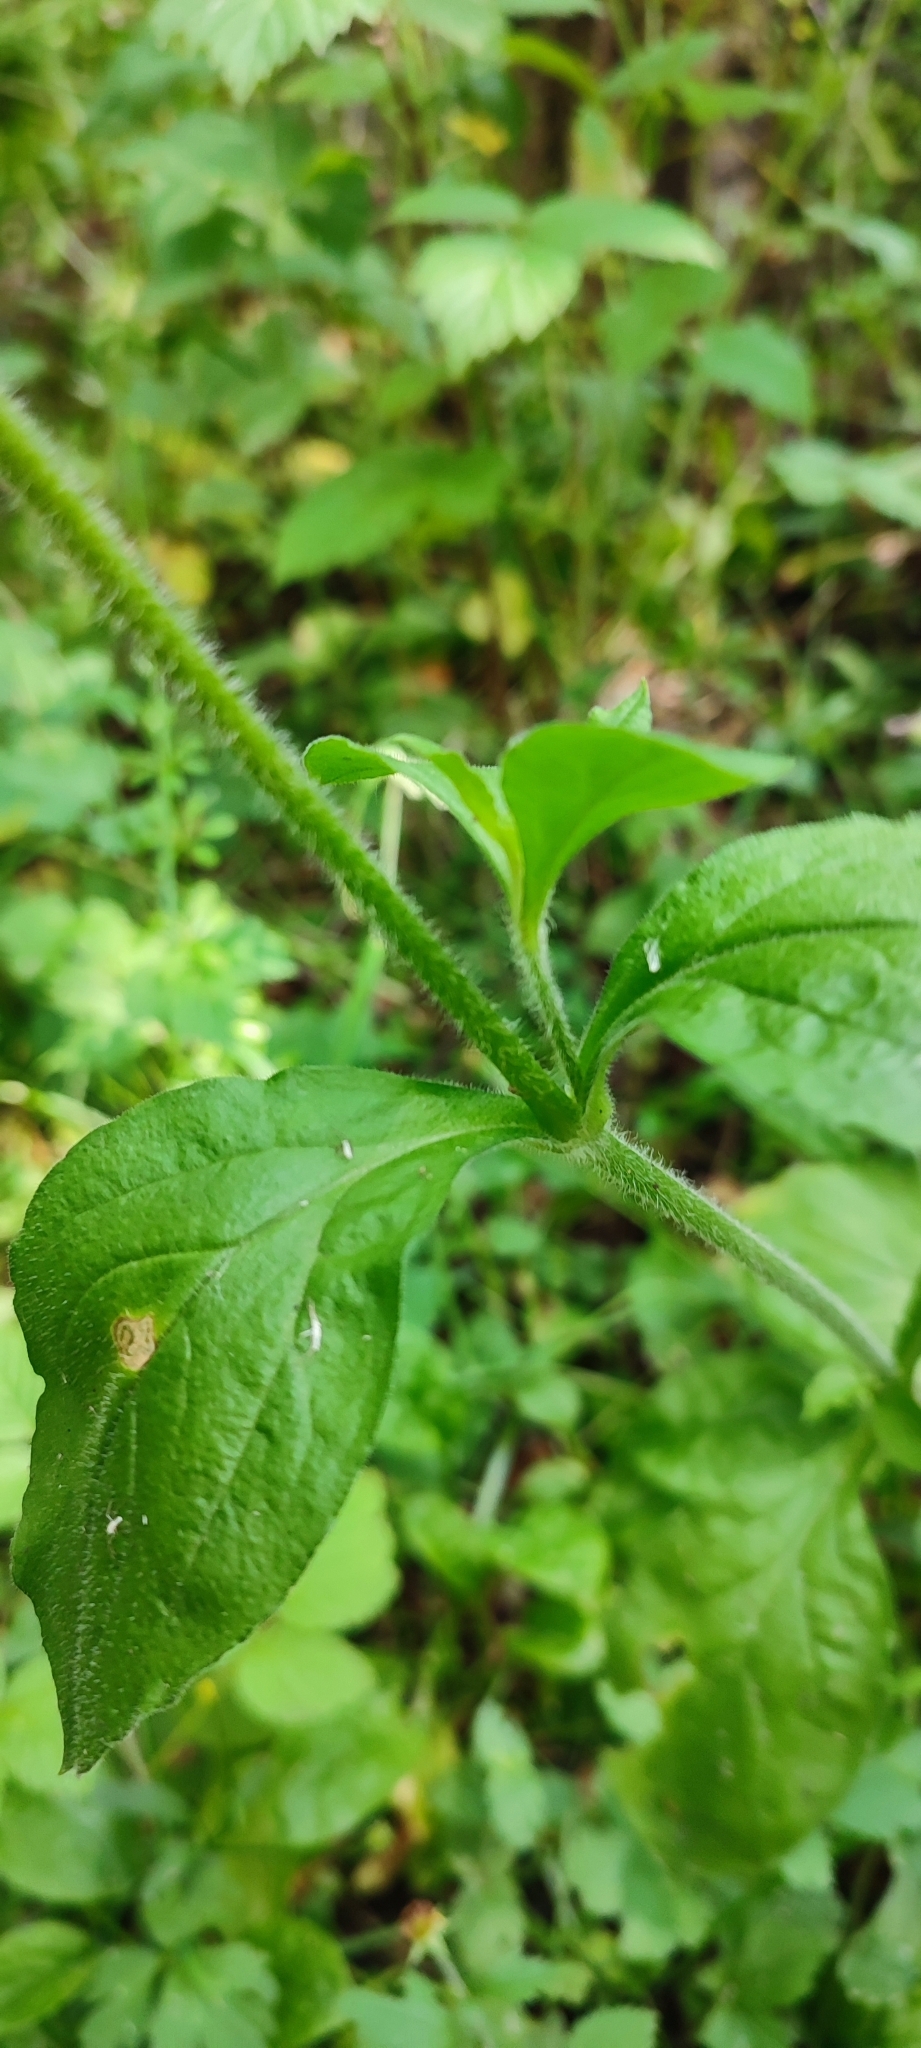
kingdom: Plantae
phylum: Tracheophyta
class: Magnoliopsida
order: Caryophyllales
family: Caryophyllaceae
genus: Silene
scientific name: Silene dioica
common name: Red campion
